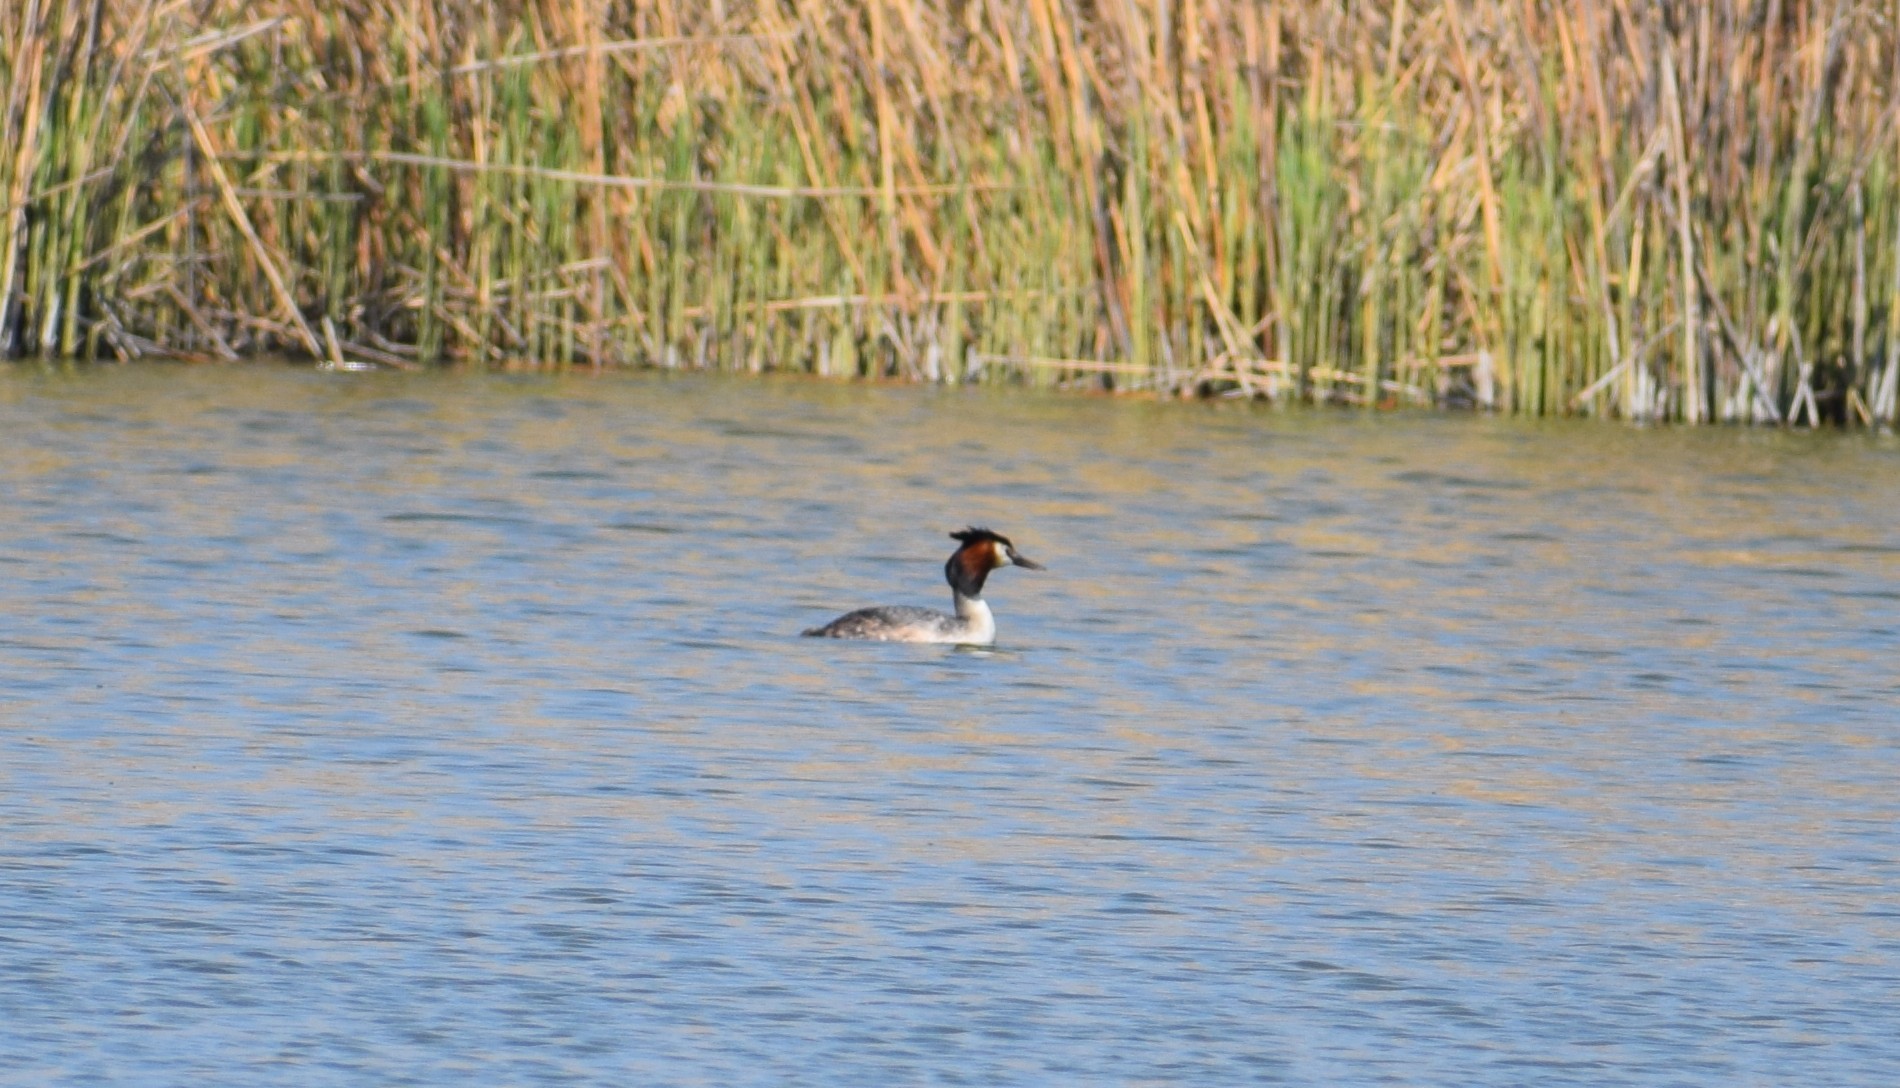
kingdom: Animalia
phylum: Chordata
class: Aves
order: Podicipediformes
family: Podicipedidae
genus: Podiceps
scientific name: Podiceps cristatus
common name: Great crested grebe
